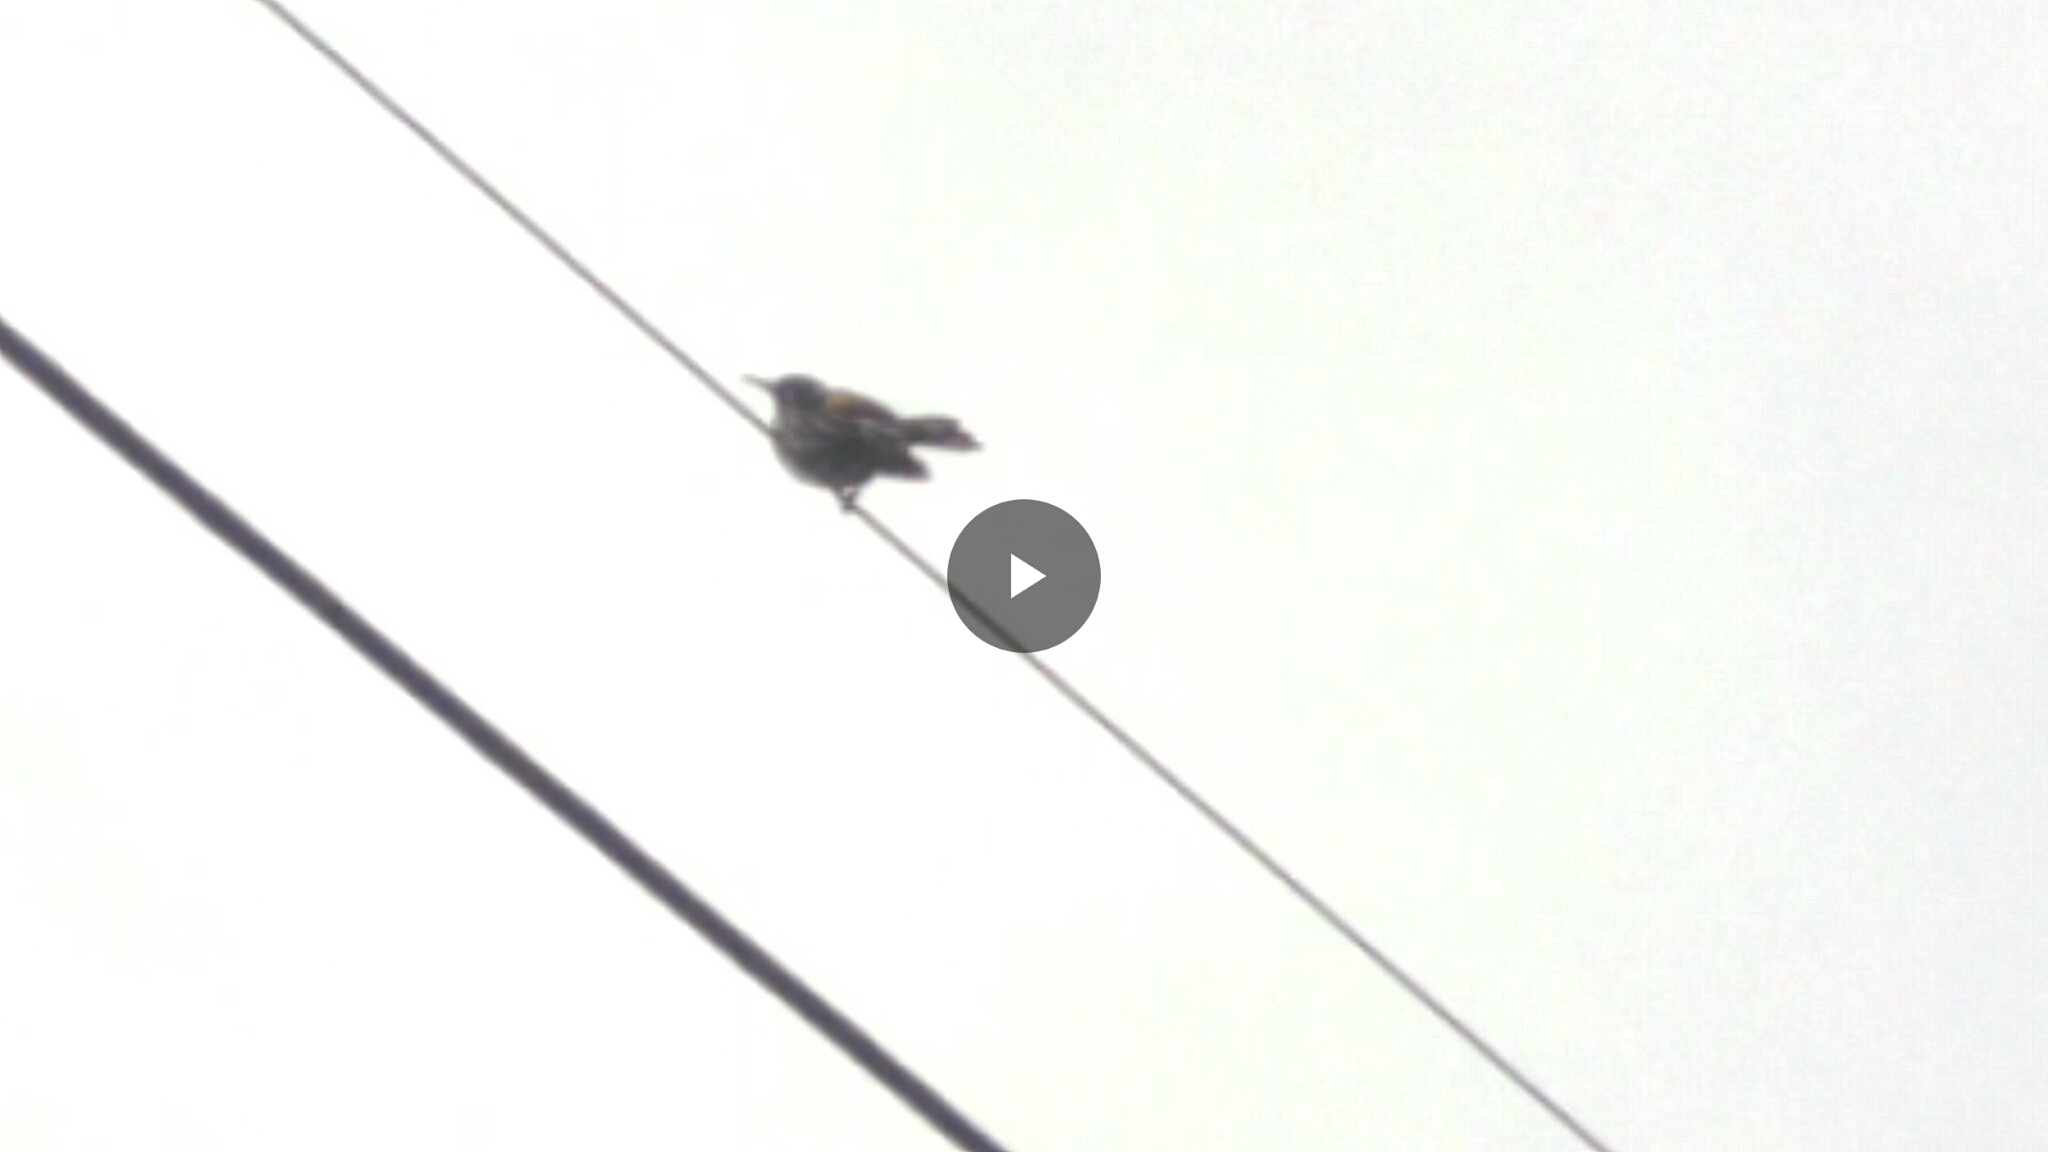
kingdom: Animalia
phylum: Chordata
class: Aves
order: Passeriformes
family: Meliphagidae
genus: Phylidonyris
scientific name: Phylidonyris novaehollandiae
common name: New holland honeyeater
